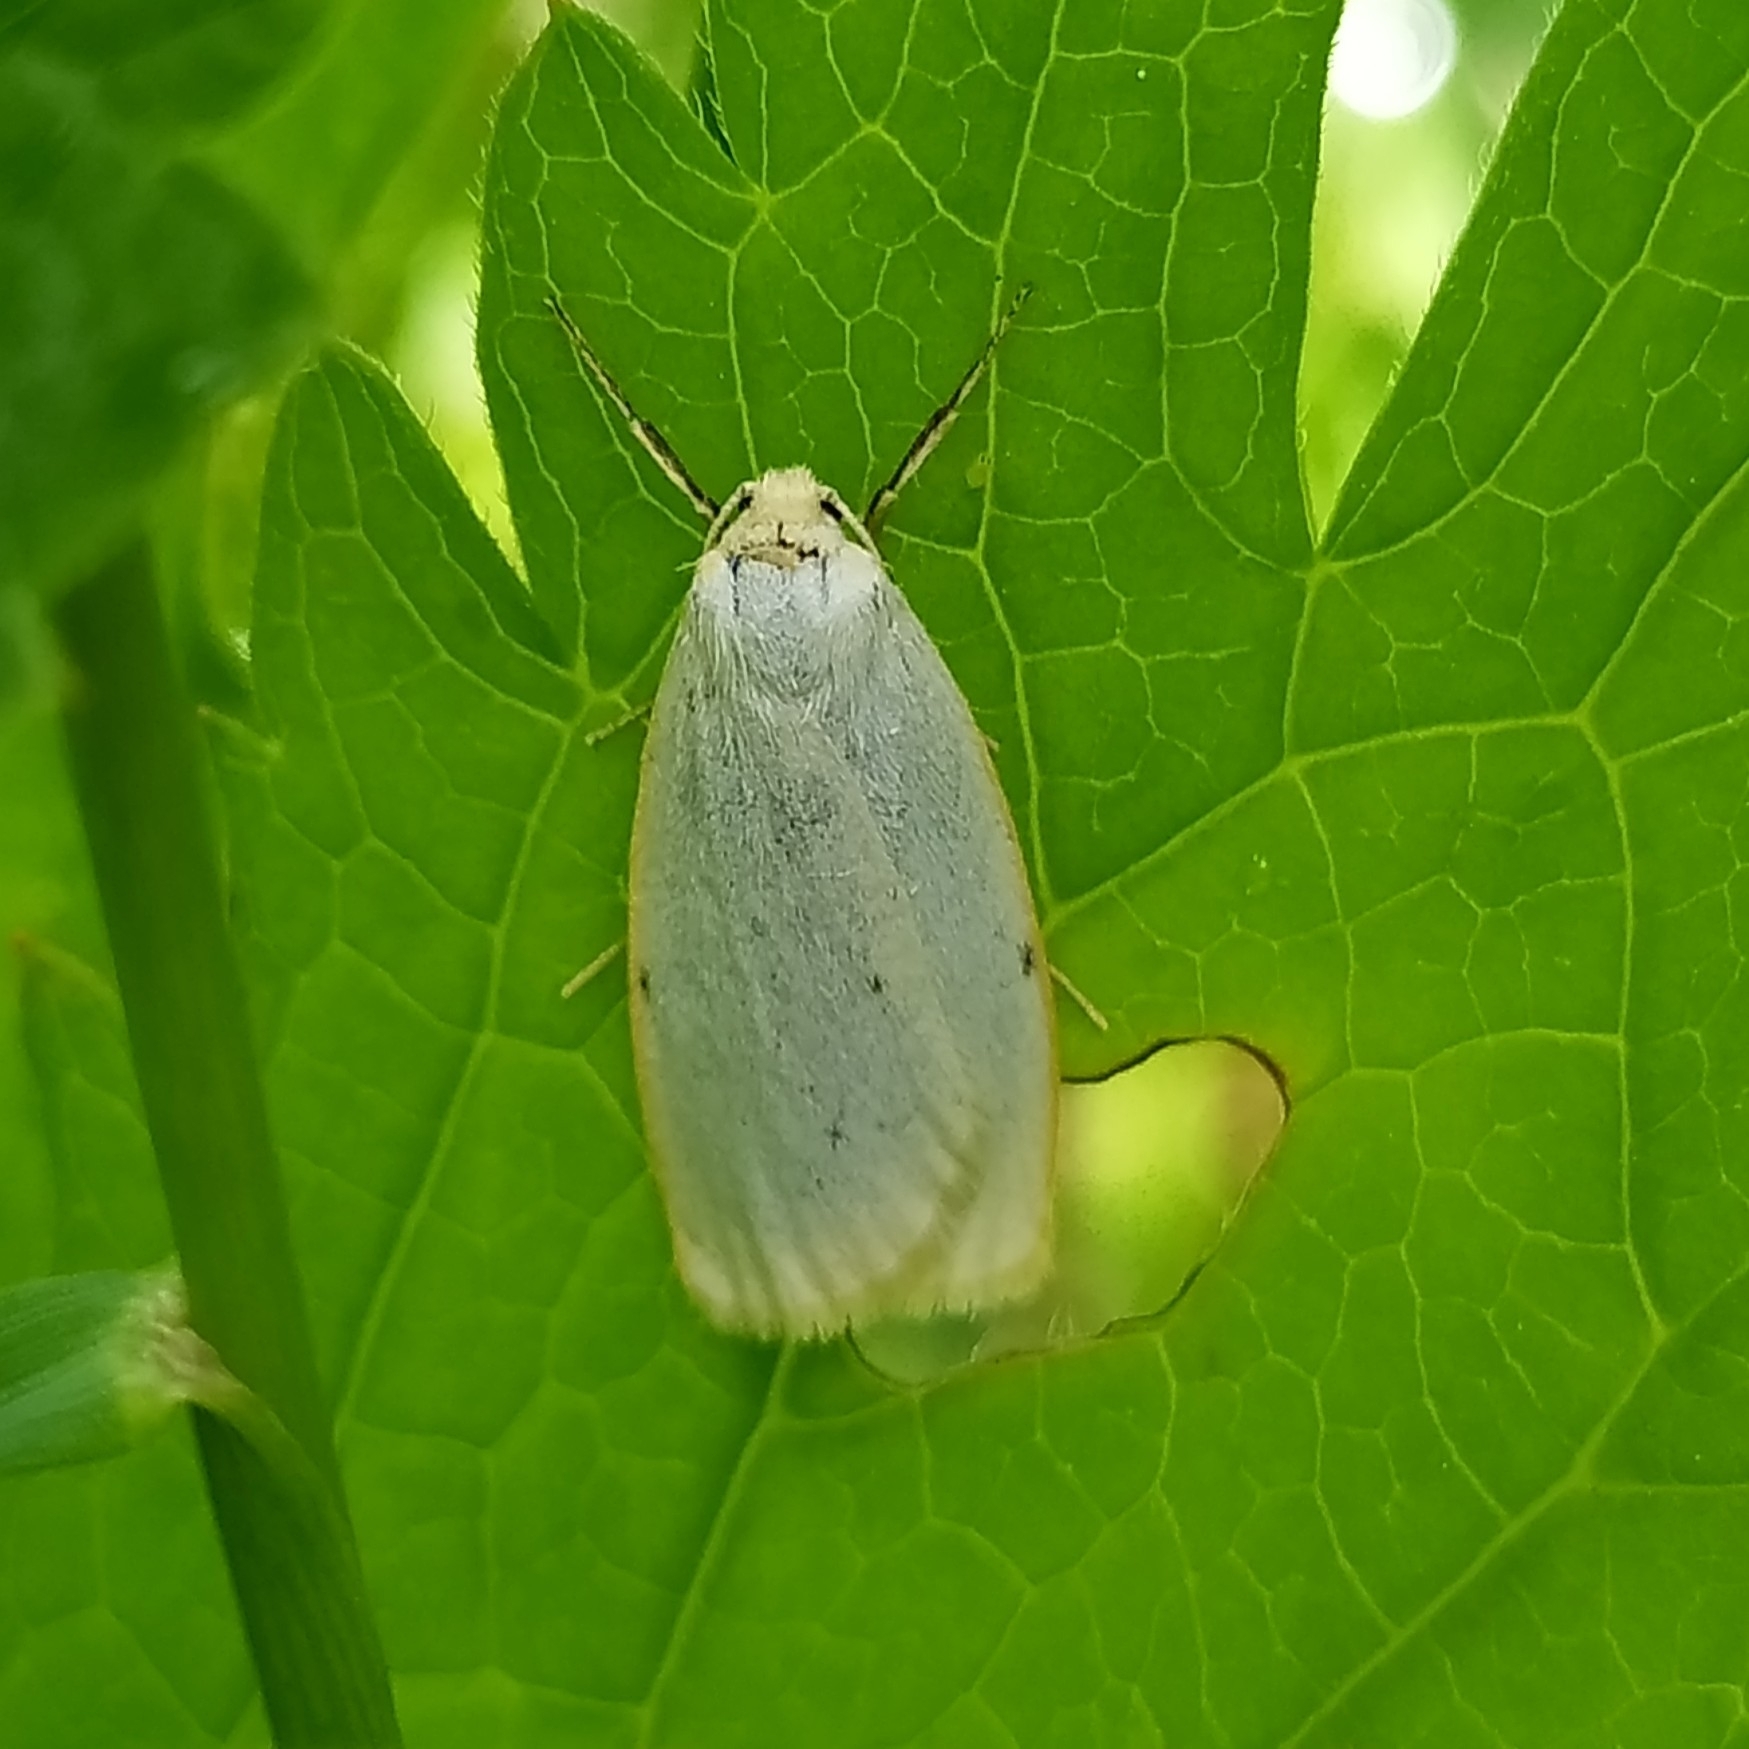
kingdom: Animalia
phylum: Arthropoda
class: Insecta
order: Lepidoptera
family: Erebidae
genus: Cybosia
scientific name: Cybosia mesomella
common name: Four-dotted footman
